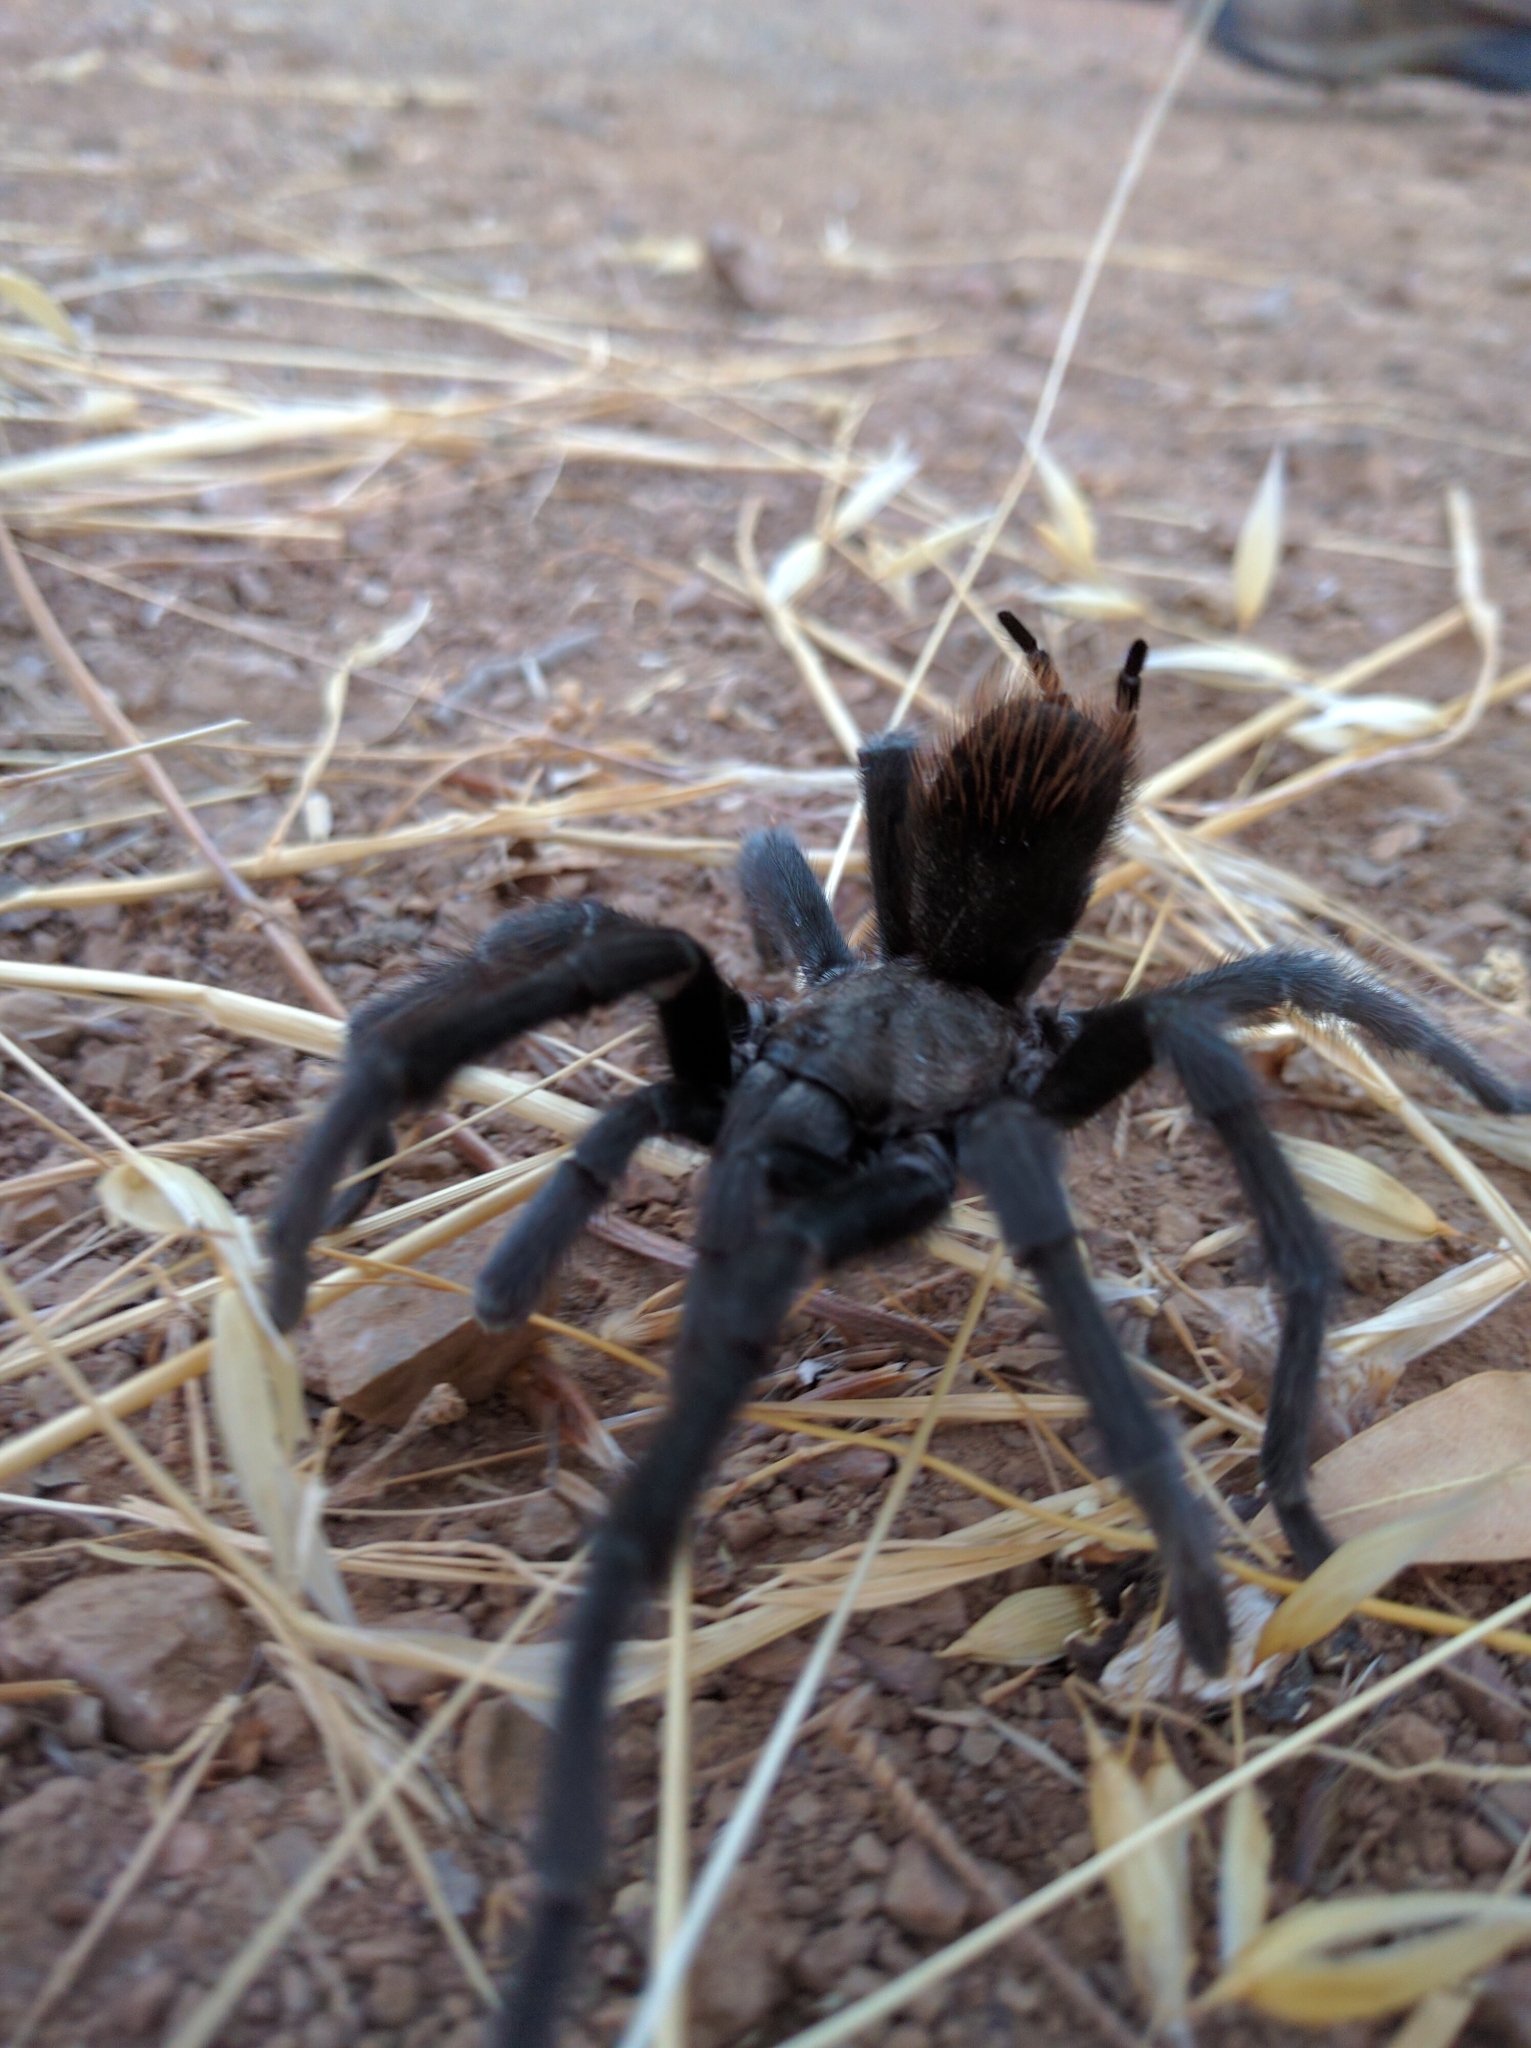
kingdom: Animalia
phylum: Arthropoda
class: Arachnida
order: Araneae
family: Theraphosidae
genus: Aphonopelma
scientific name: Aphonopelma iodius
